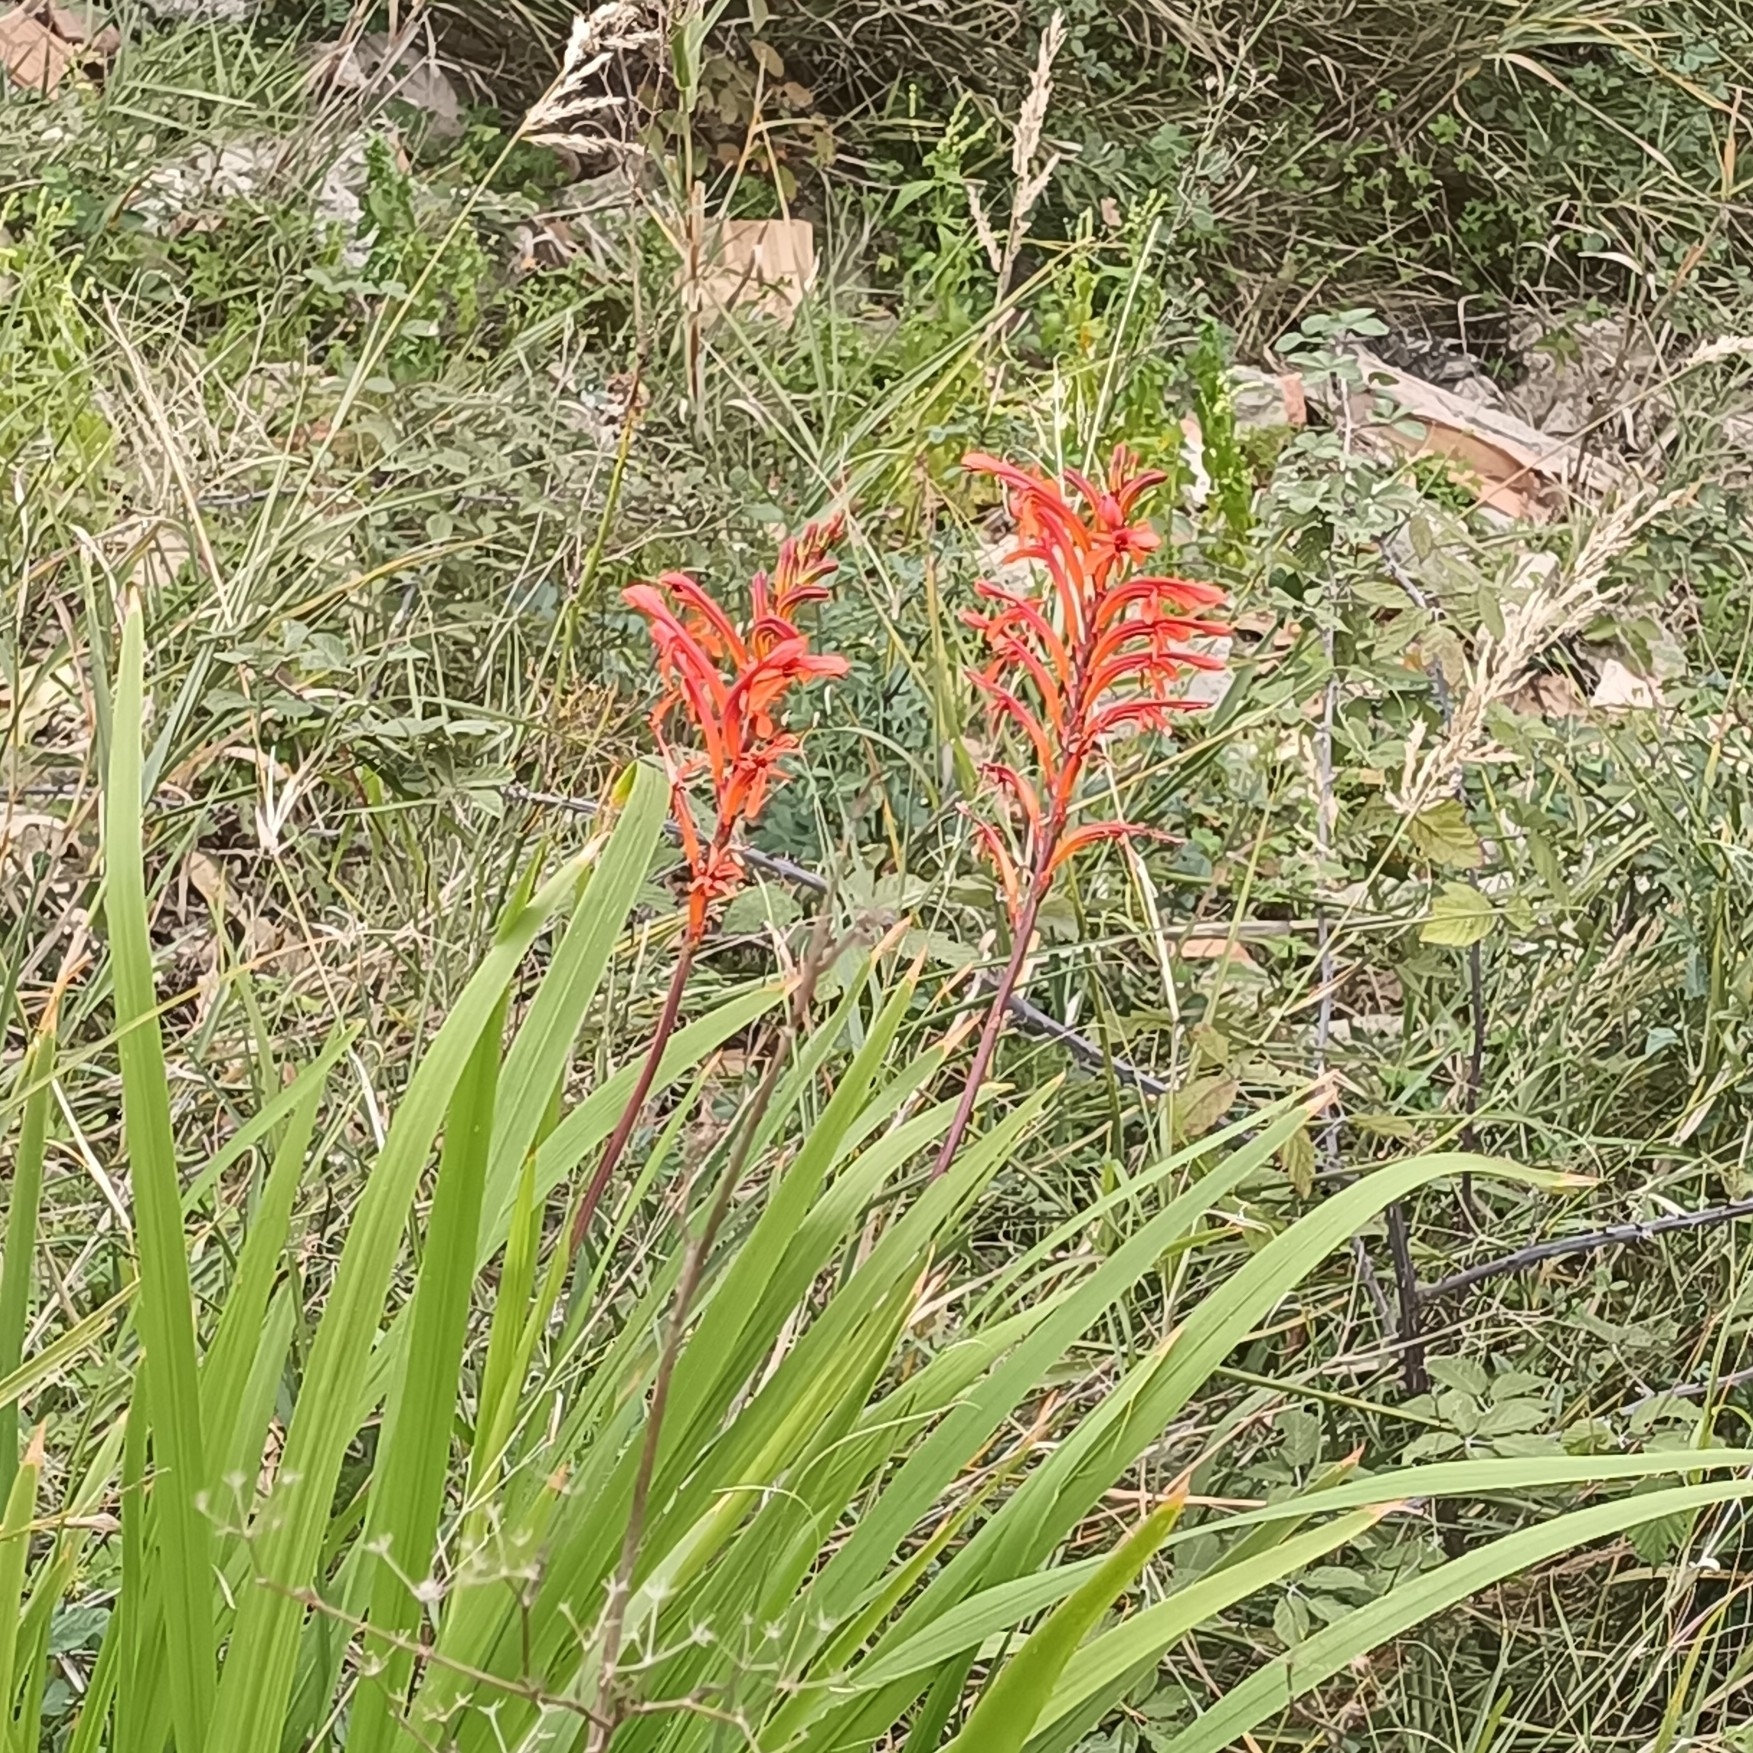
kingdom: Plantae
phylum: Tracheophyta
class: Liliopsida
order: Asparagales
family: Iridaceae
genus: Chasmanthe
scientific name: Chasmanthe floribunda
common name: African cornflag
